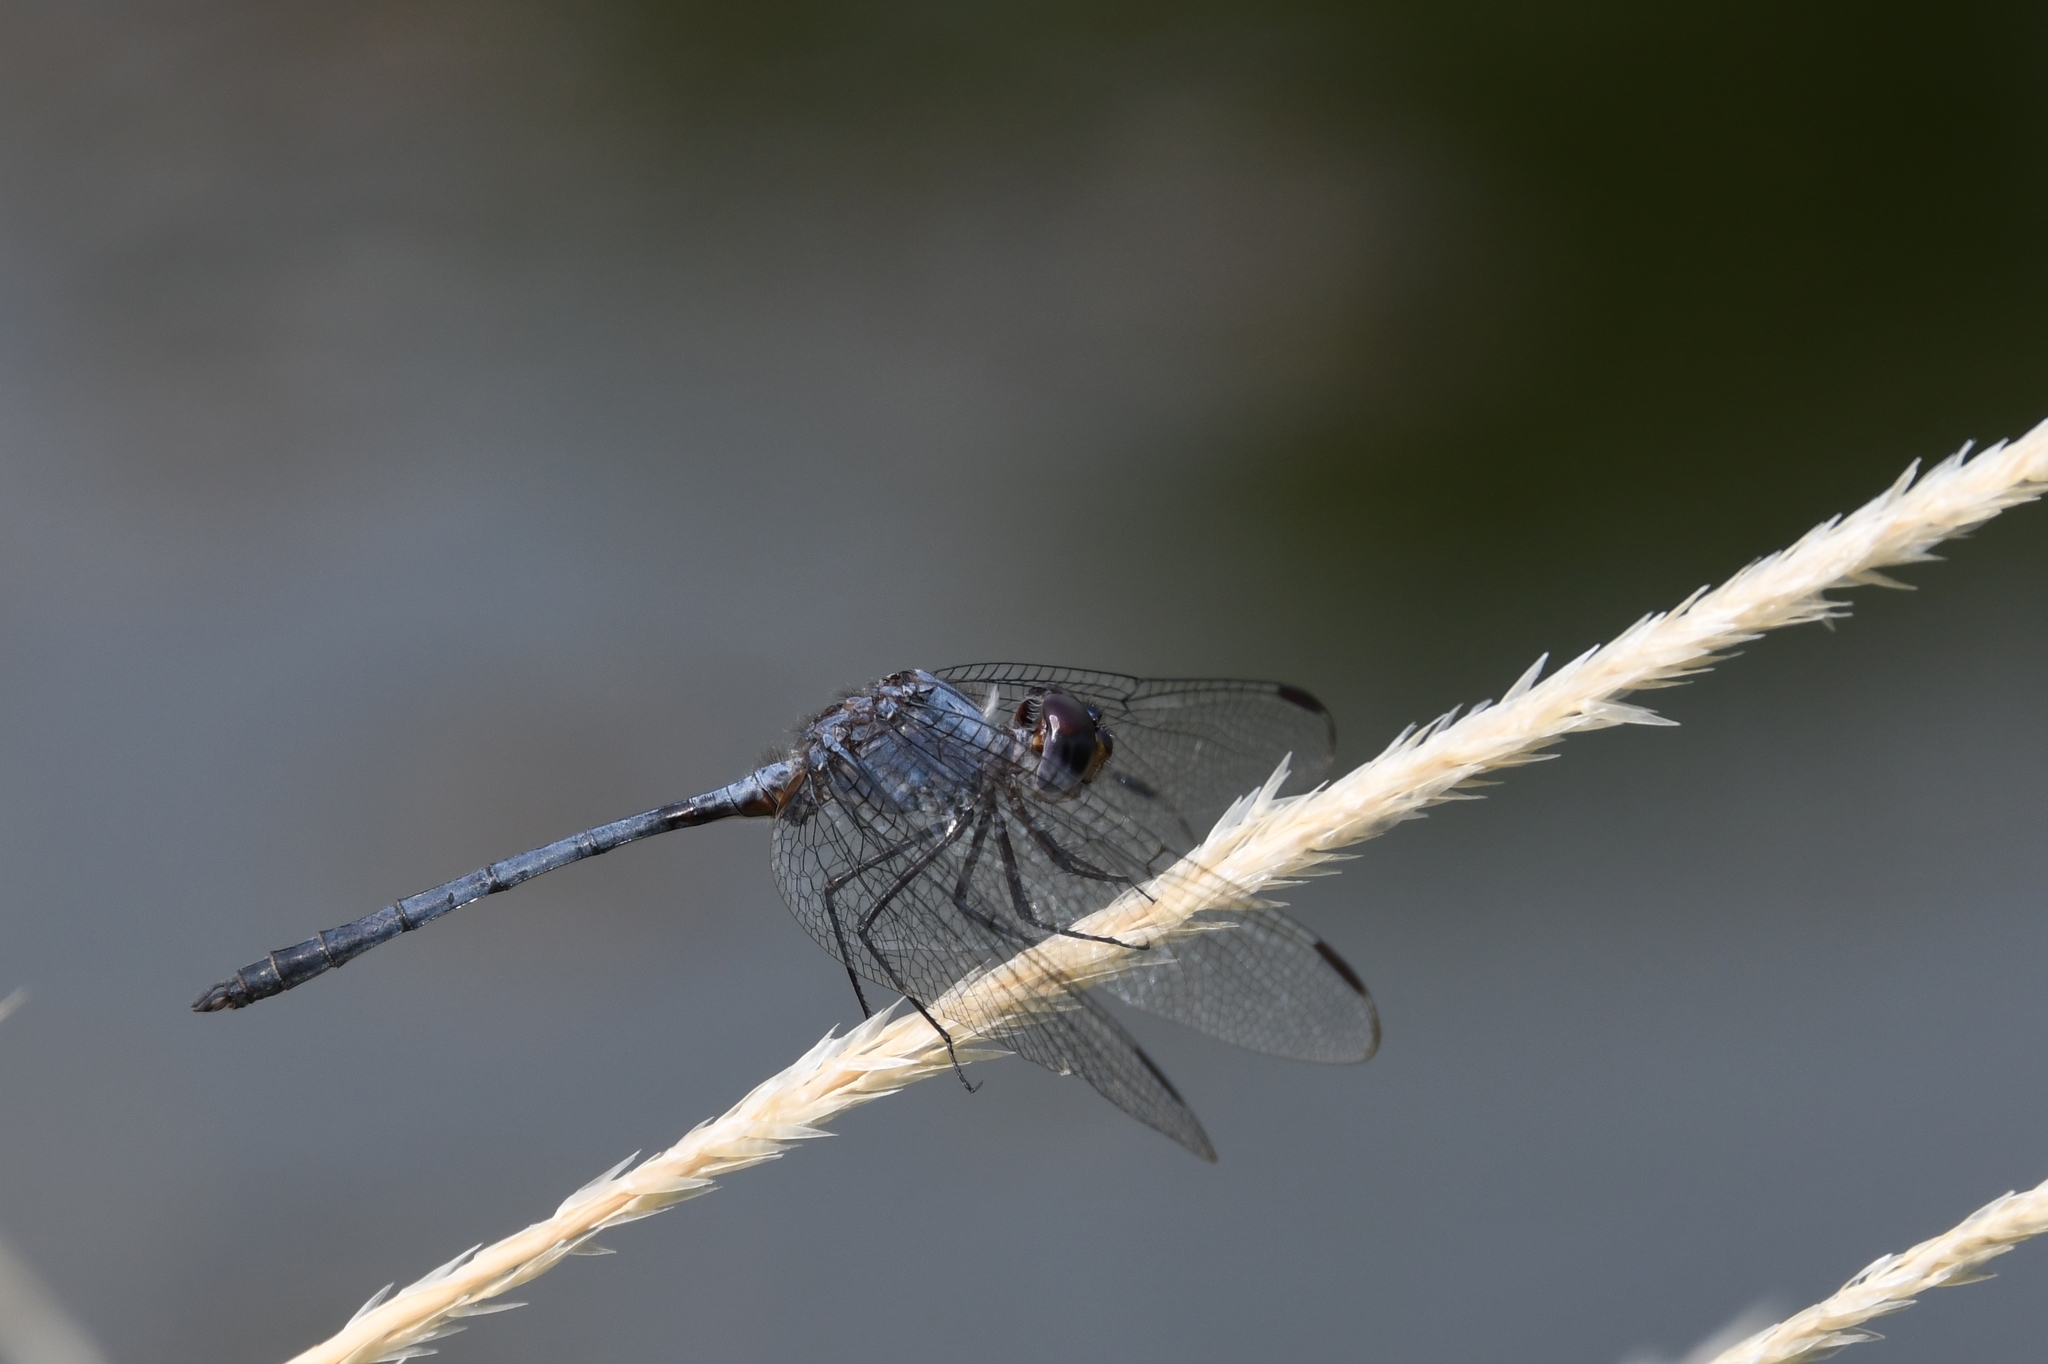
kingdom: Animalia
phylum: Arthropoda
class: Insecta
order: Odonata
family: Libellulidae
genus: Dythemis
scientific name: Dythemis nigrescens
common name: Black setwing
